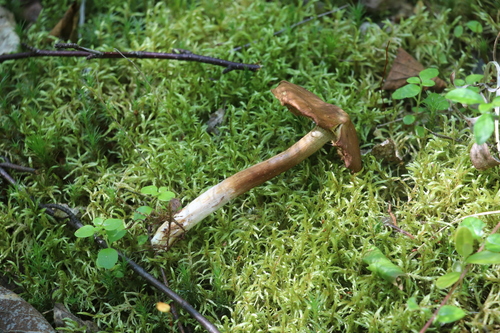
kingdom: Fungi
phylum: Basidiomycota
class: Agaricomycetes
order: Agaricales
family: Inocybaceae
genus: Inosperma
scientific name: Inosperma maculatum
